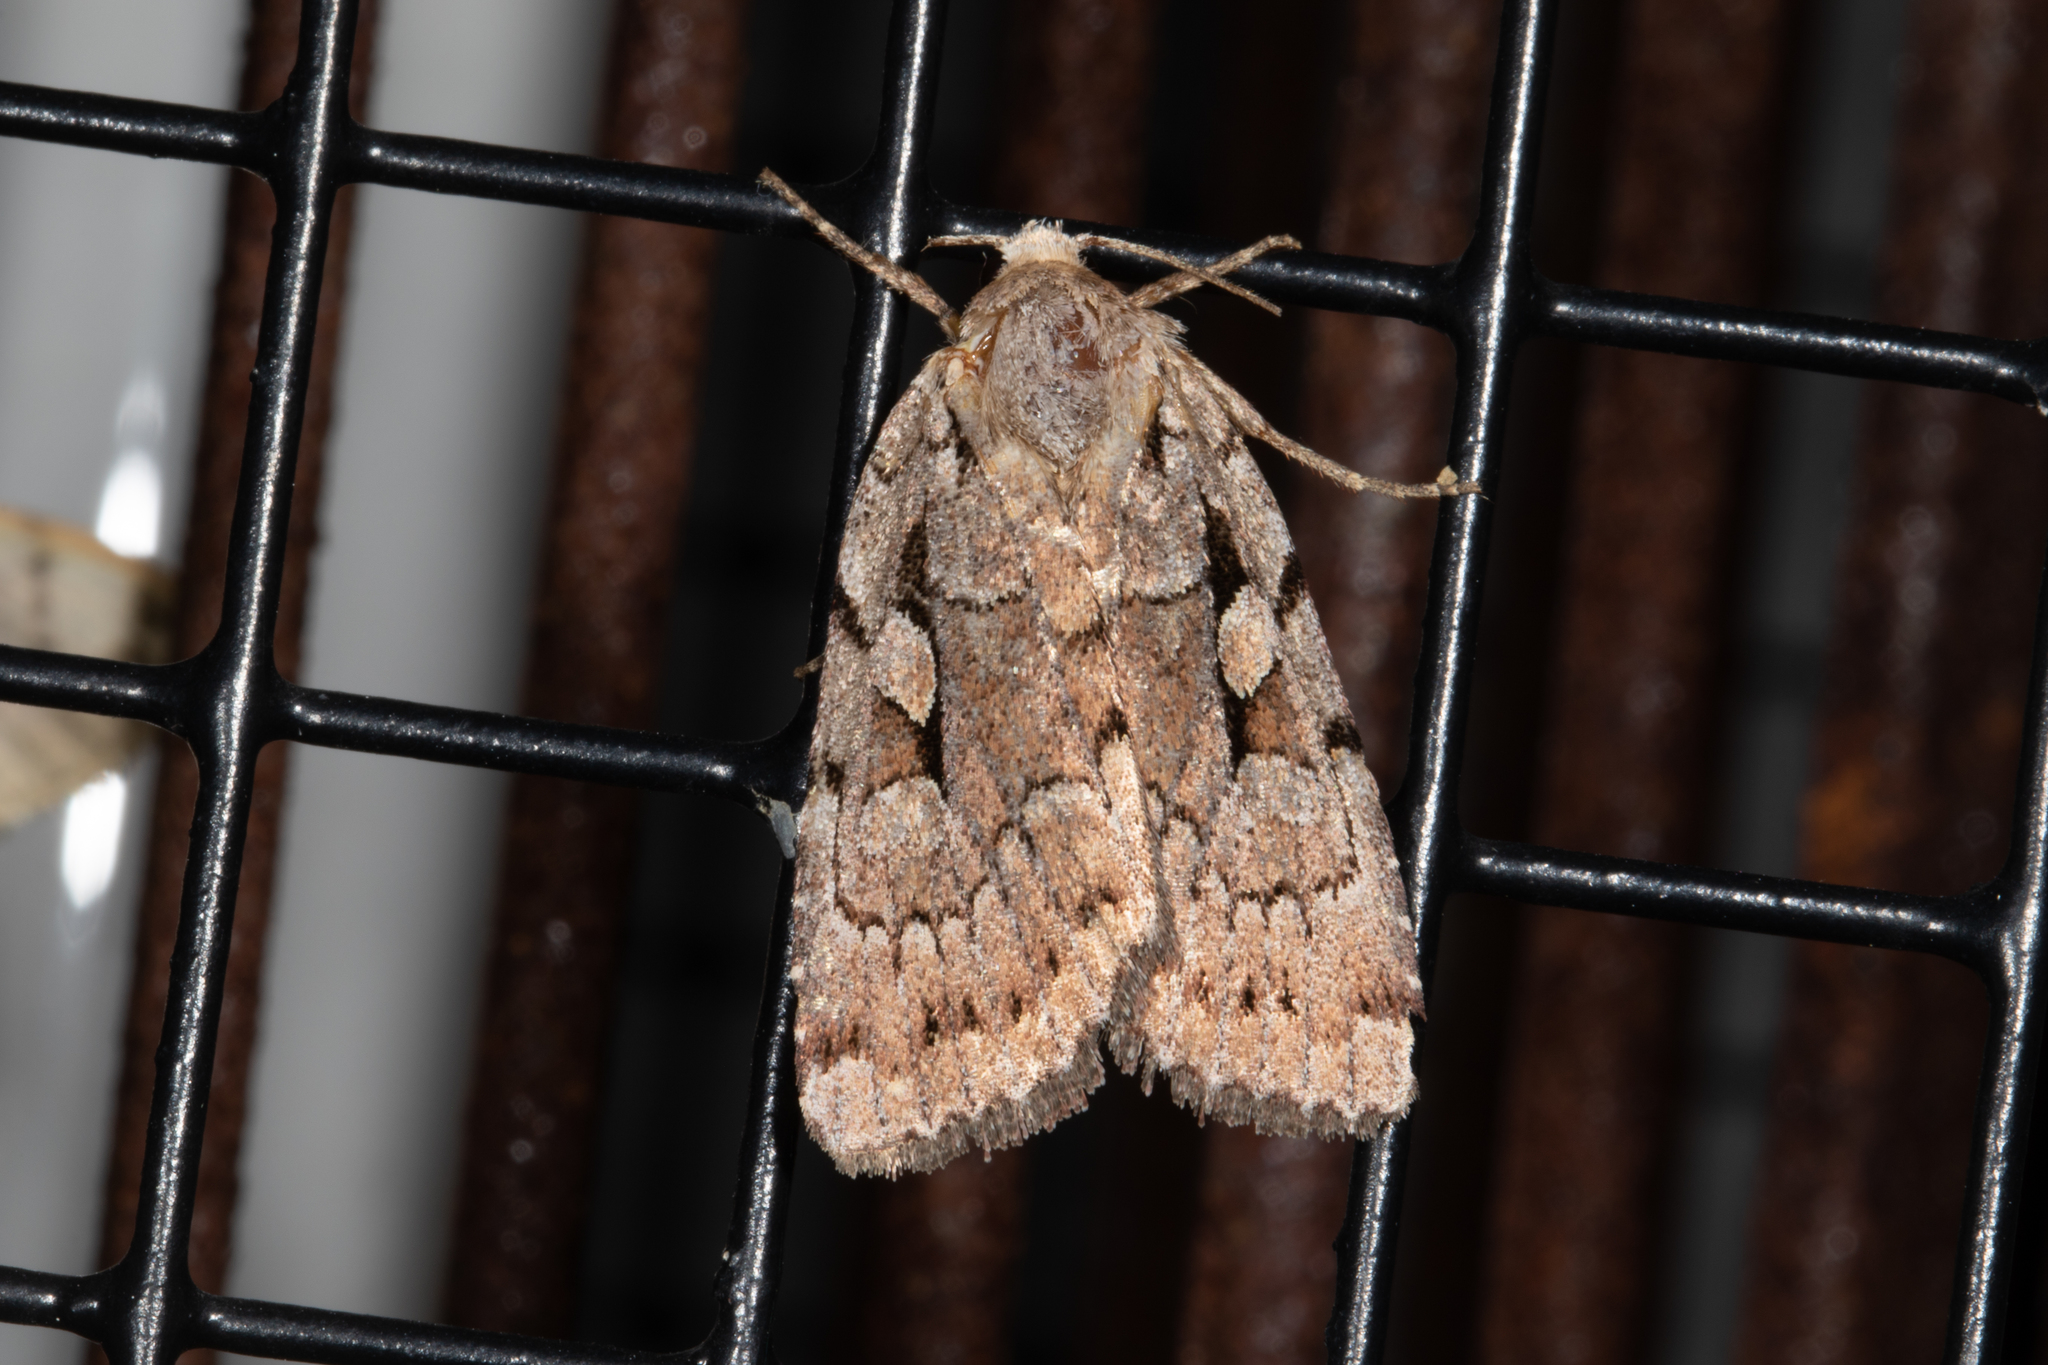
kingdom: Animalia
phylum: Arthropoda
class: Insecta
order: Lepidoptera
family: Noctuidae
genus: Xestia
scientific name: Xestia badicollis
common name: Northern variable dart
